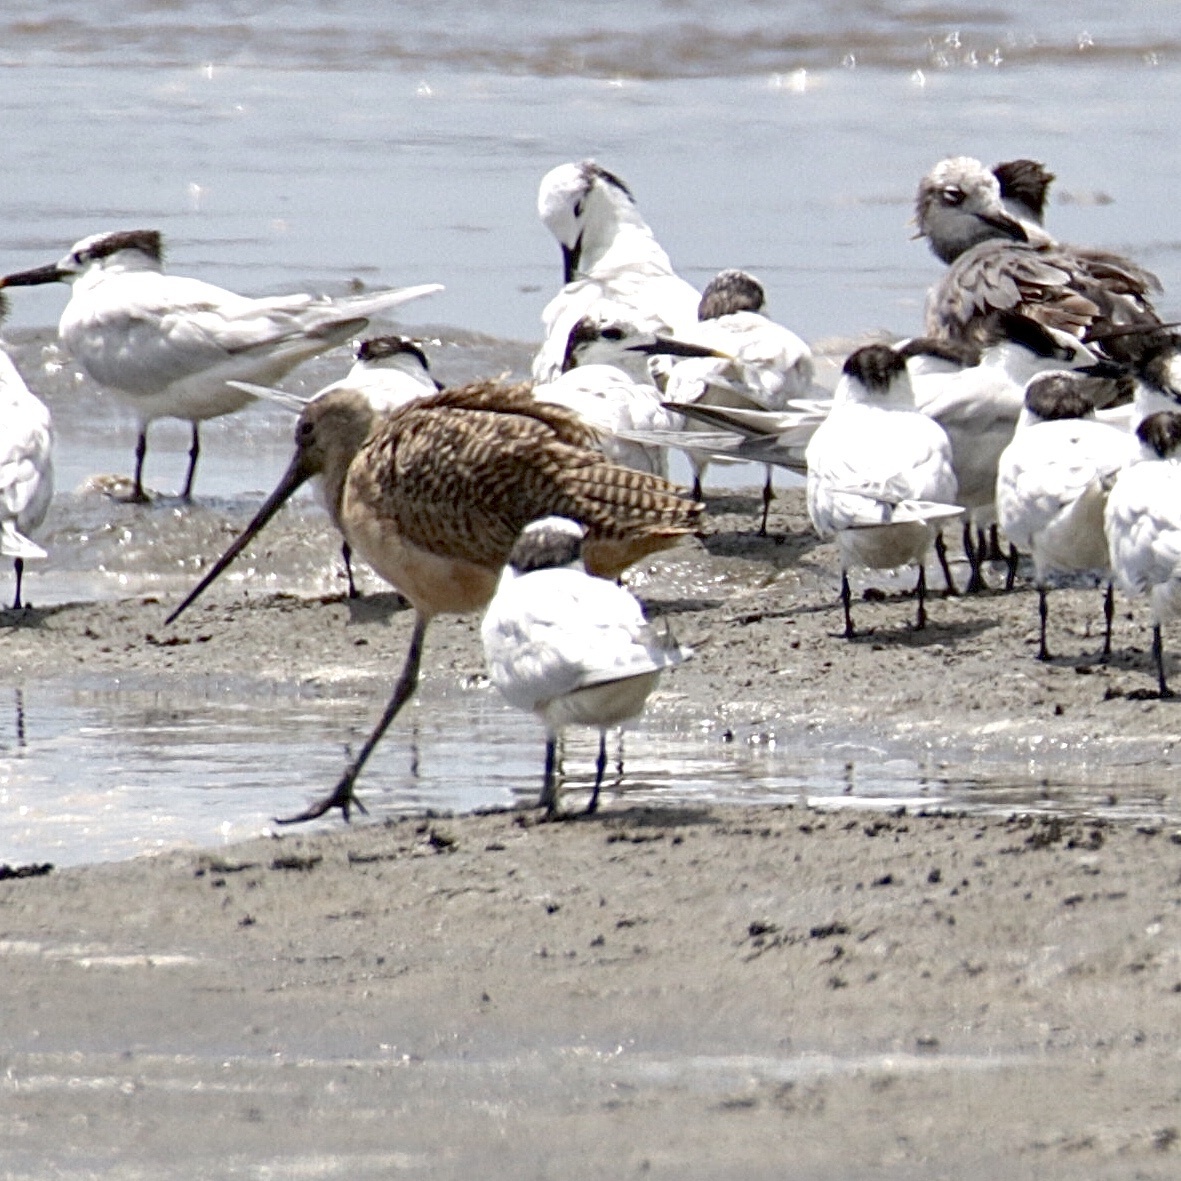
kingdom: Animalia
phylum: Chordata
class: Aves
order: Charadriiformes
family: Scolopacidae
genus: Limosa
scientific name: Limosa fedoa
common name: Marbled godwit
